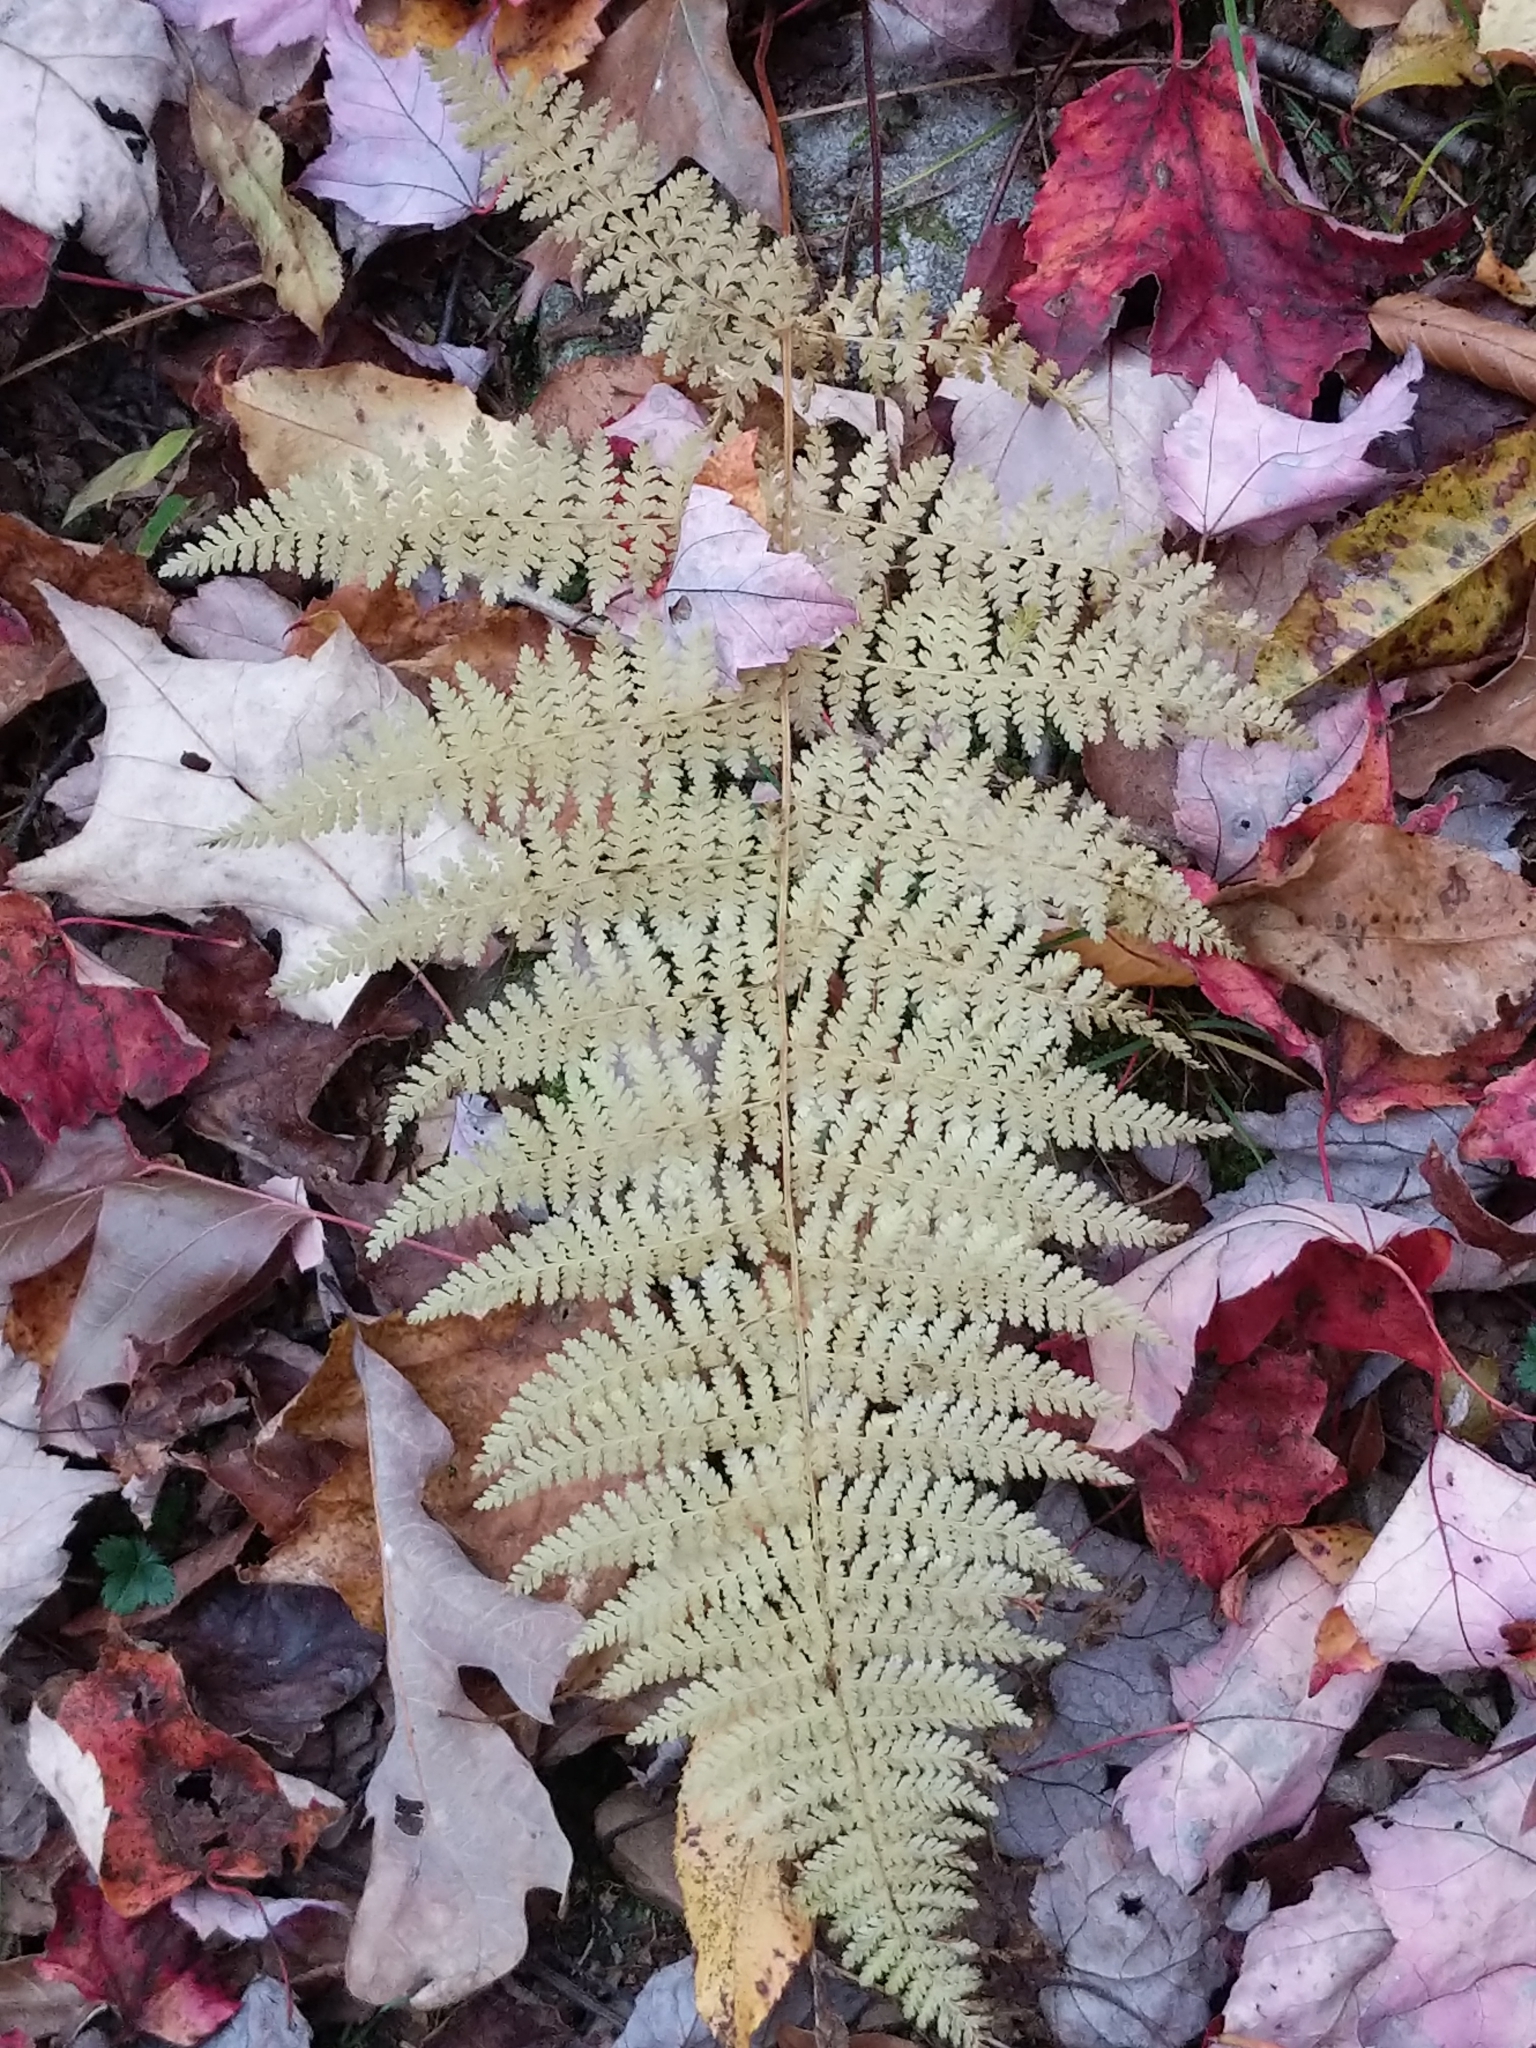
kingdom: Plantae
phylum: Tracheophyta
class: Polypodiopsida
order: Polypodiales
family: Dennstaedtiaceae
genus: Sitobolium
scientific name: Sitobolium punctilobum
